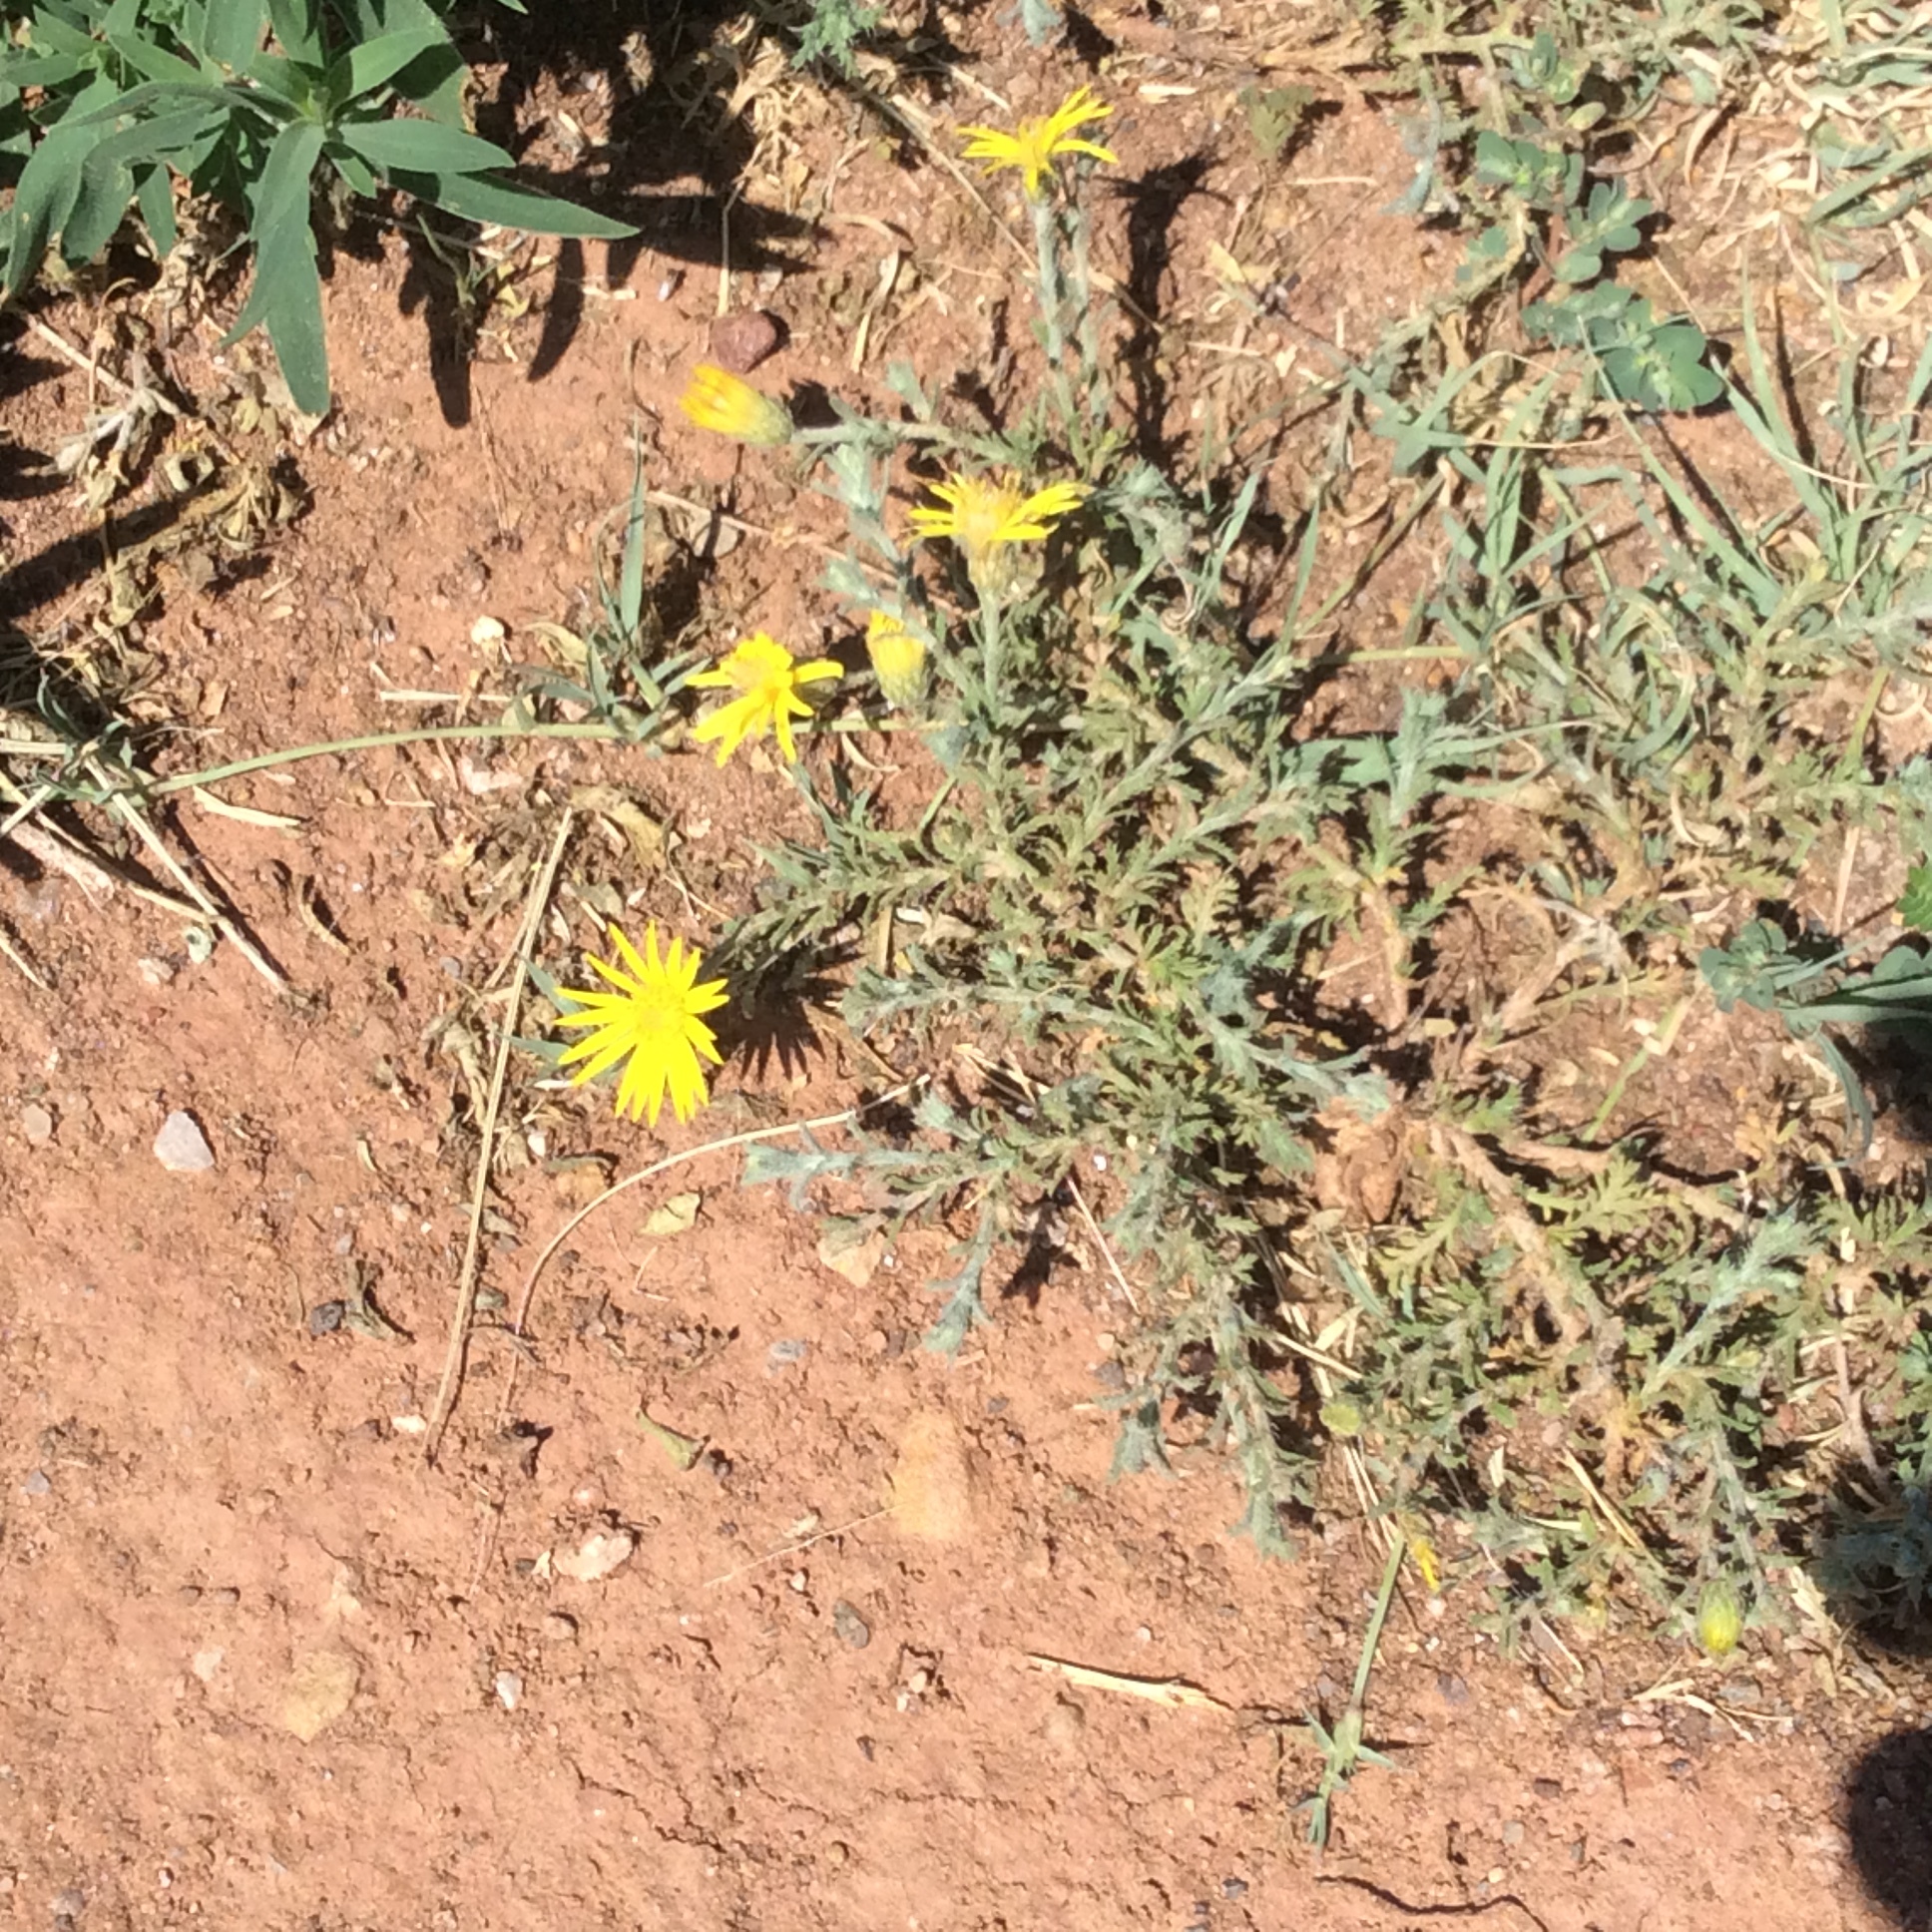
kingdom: Plantae
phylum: Tracheophyta
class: Magnoliopsida
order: Asterales
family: Asteraceae
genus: Xanthisma
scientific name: Xanthisma spinulosum
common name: Spiny goldenweed
